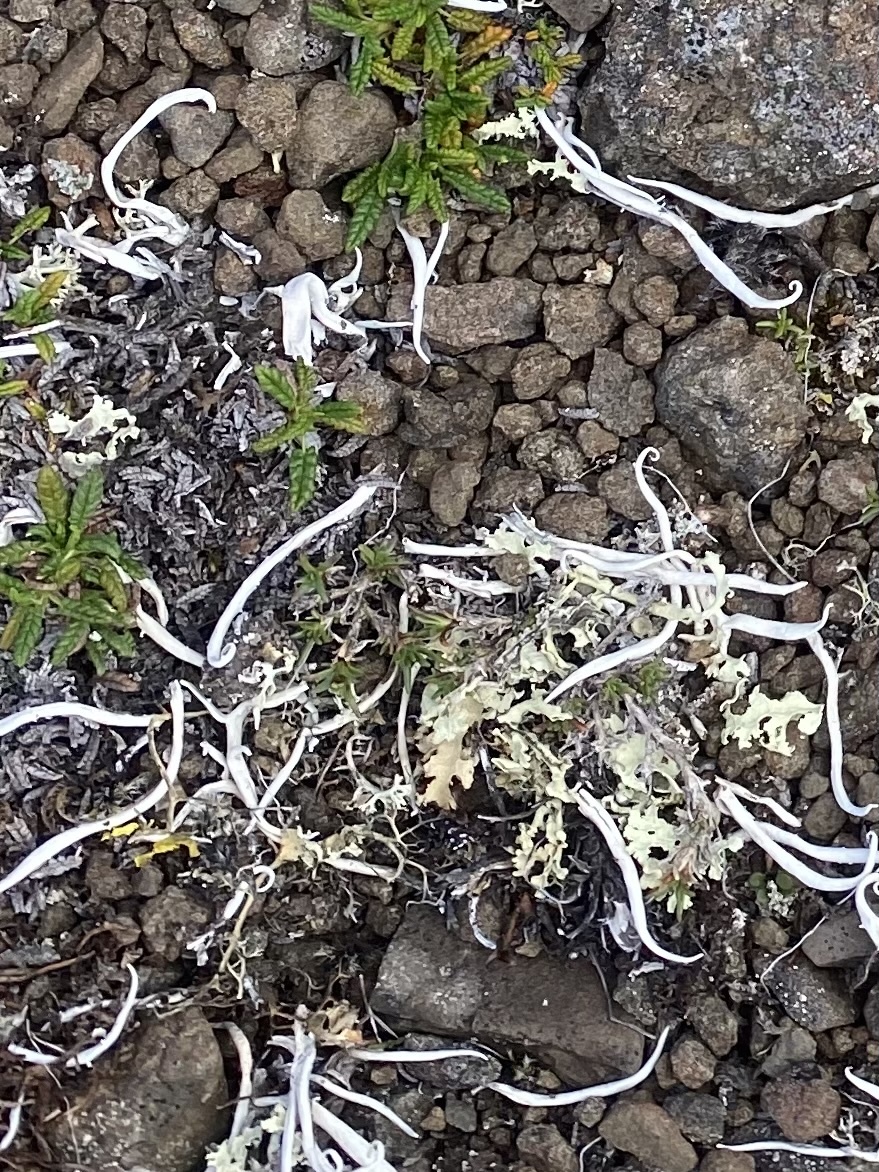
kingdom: Fungi
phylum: Ascomycota
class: Lecanoromycetes
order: Pertusariales
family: Icmadophilaceae
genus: Thamnolia
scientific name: Thamnolia vermicularis
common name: Whiteworm lichen
